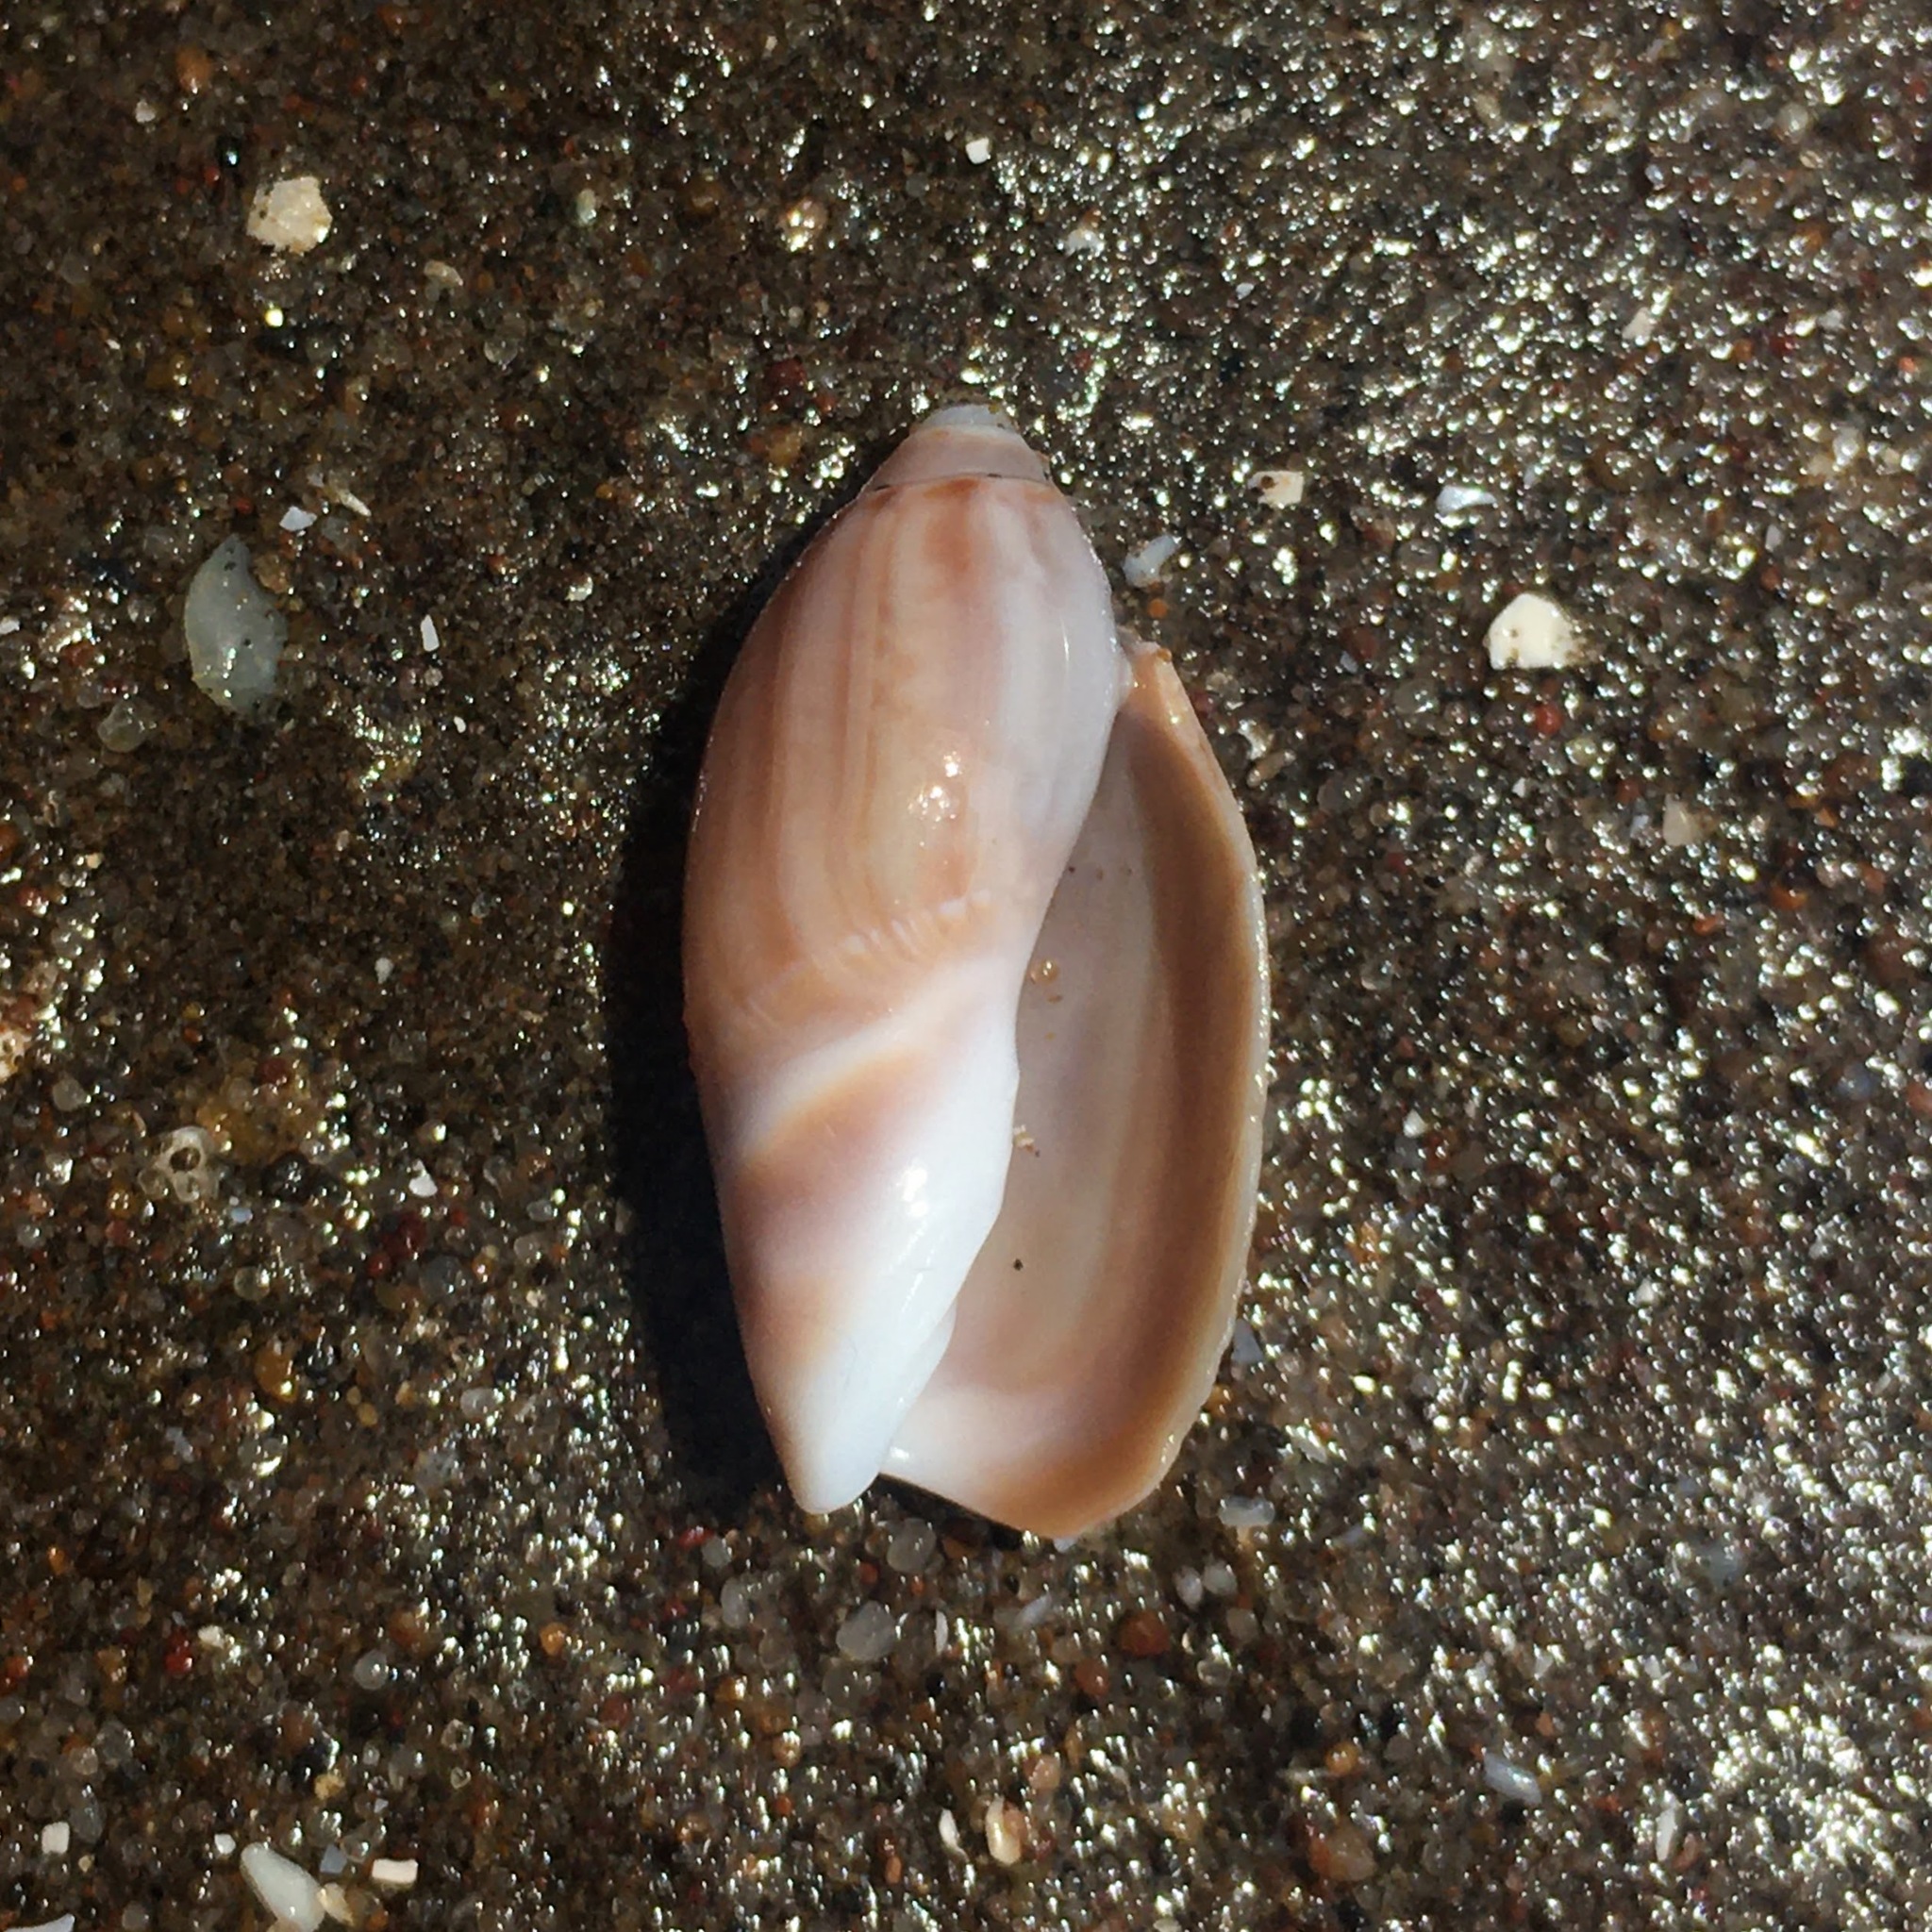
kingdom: Animalia
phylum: Mollusca
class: Gastropoda
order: Neogastropoda
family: Olividae
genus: Olivancillaria
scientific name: Olivancillaria carcellesi
